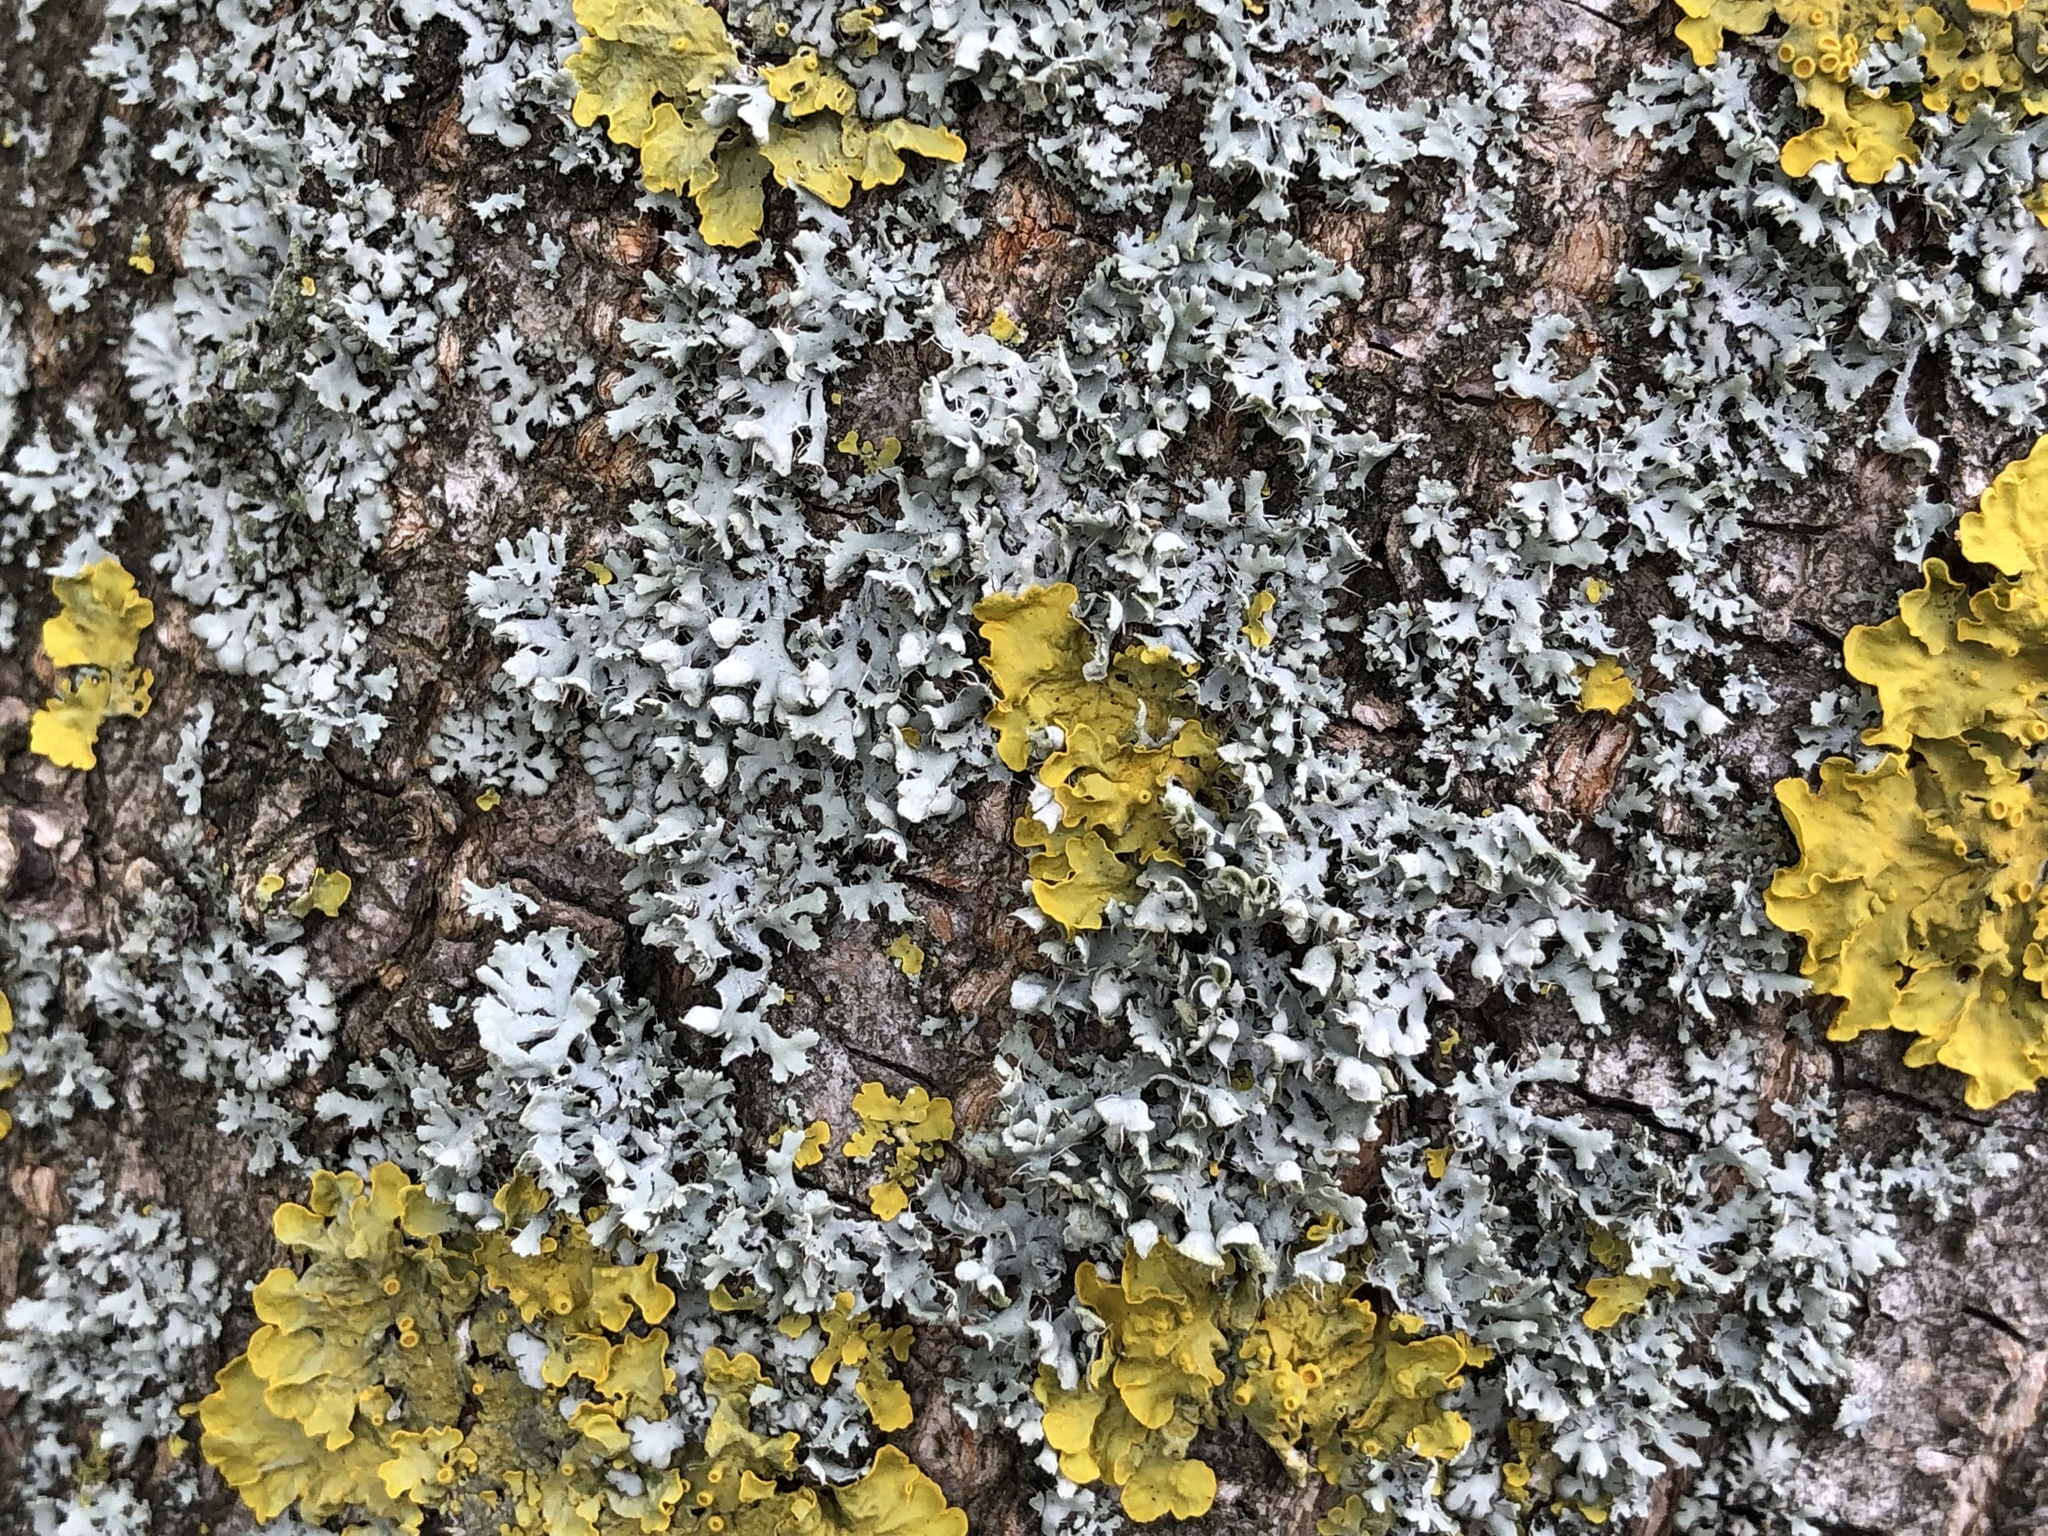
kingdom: Fungi
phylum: Ascomycota
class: Lecanoromycetes
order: Caliciales
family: Physciaceae
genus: Physcia
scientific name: Physcia adscendens
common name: Hooded rosette lichen
